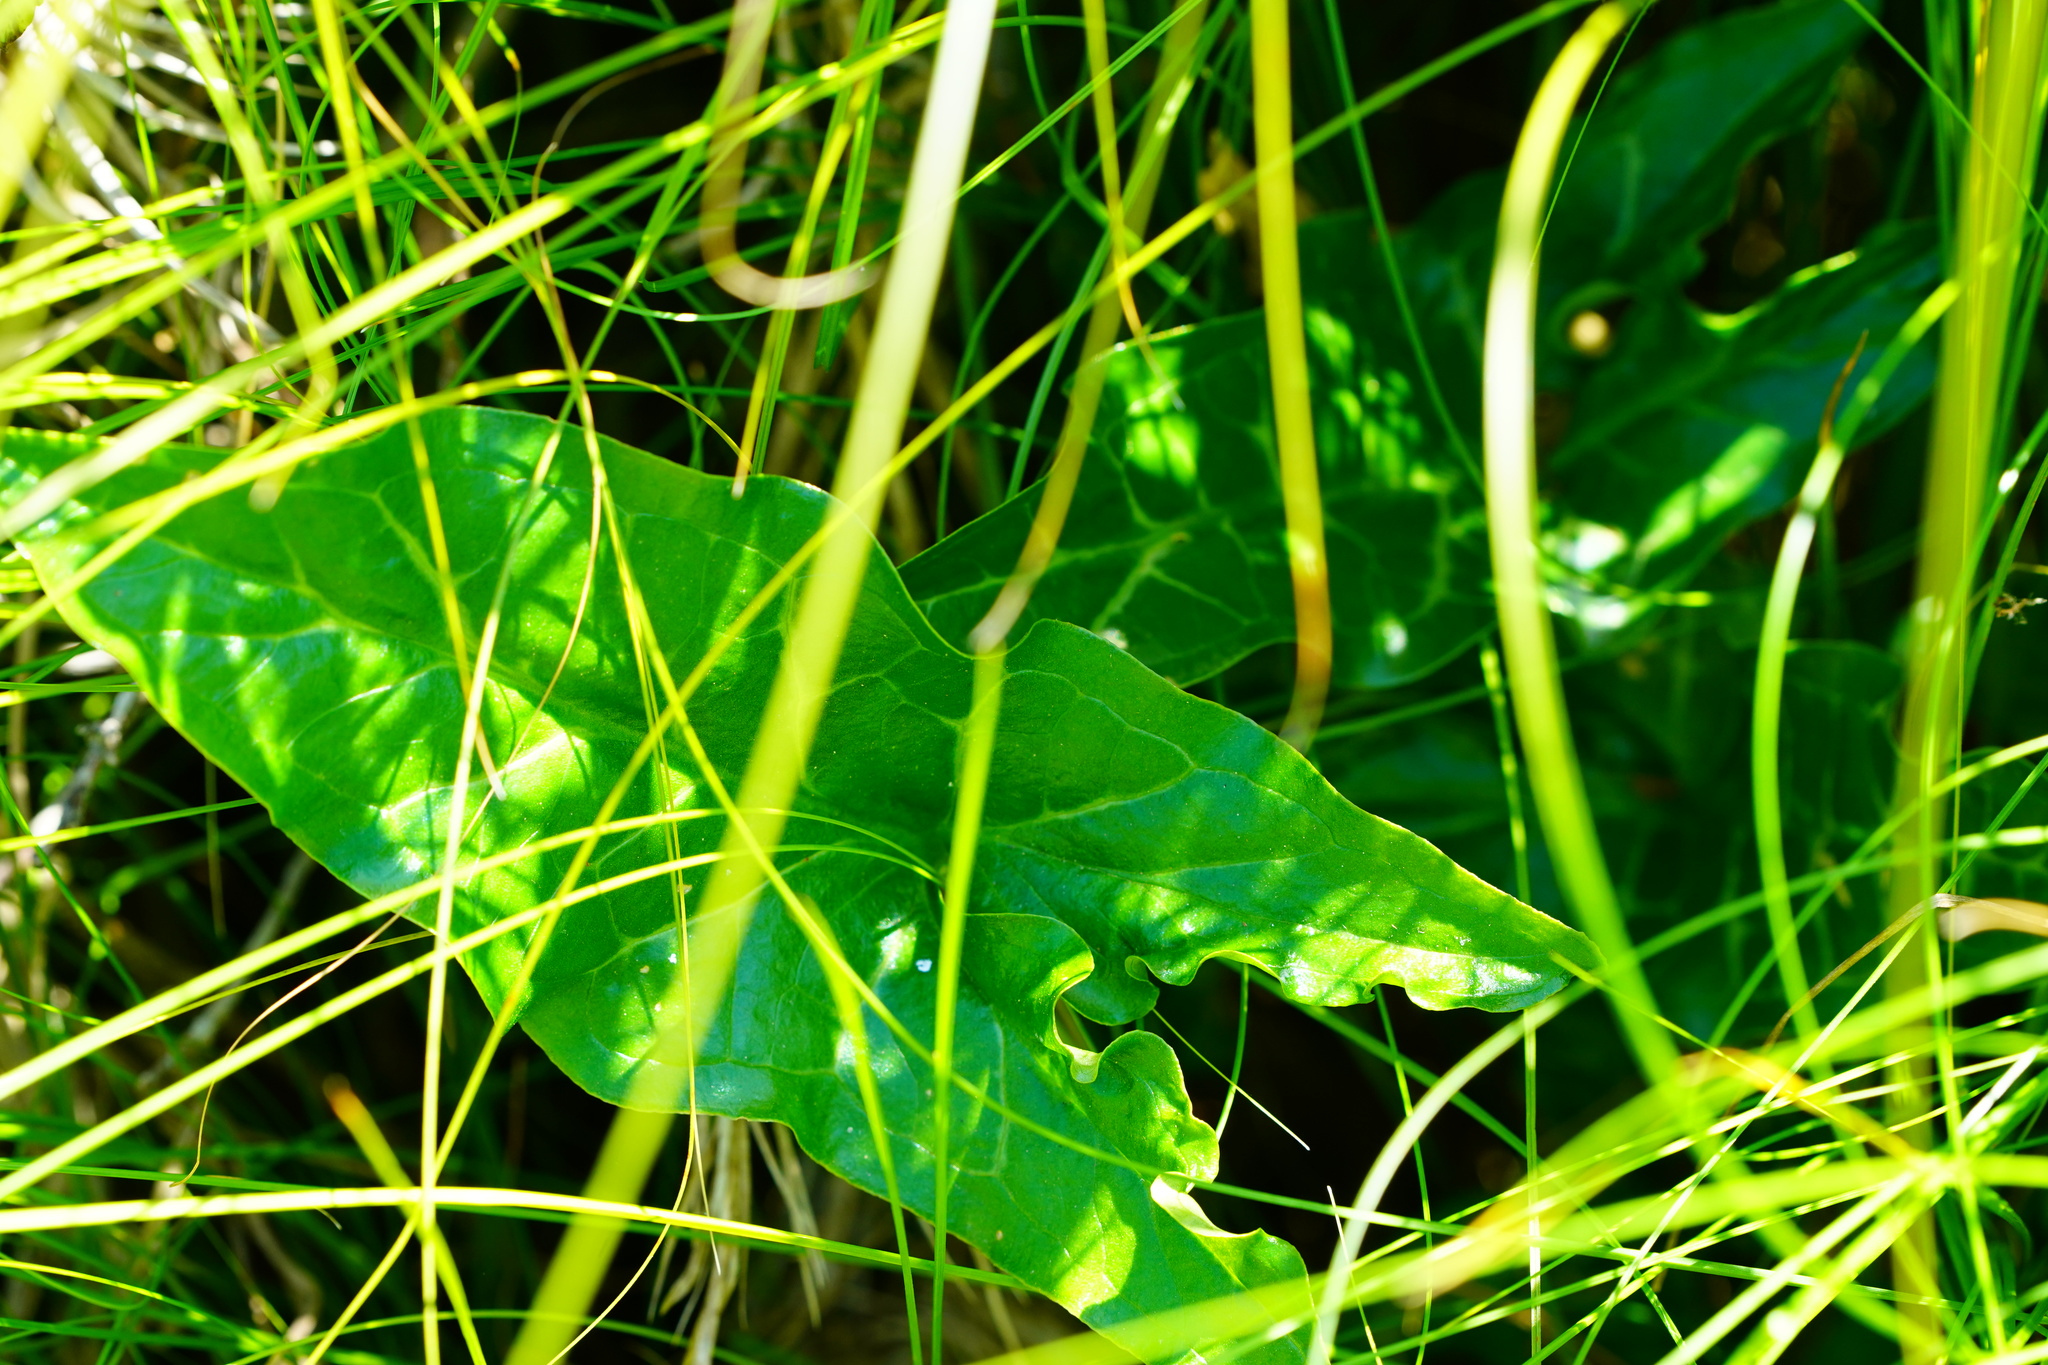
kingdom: Plantae
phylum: Tracheophyta
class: Liliopsida
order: Alismatales
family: Araceae
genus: Arum
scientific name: Arum italicum
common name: Italian lords-and-ladies
